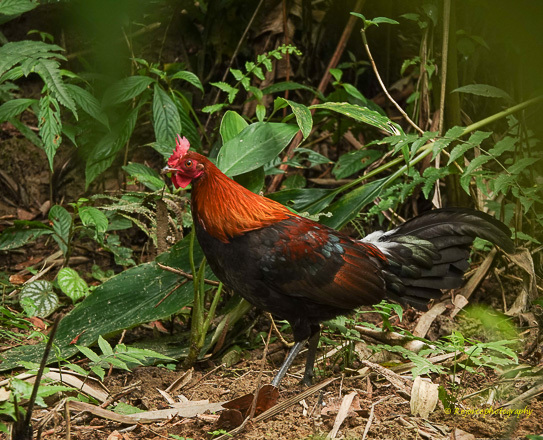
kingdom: Animalia
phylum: Chordata
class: Aves
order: Galliformes
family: Phasianidae
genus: Gallus
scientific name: Gallus gallus
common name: Red junglefowl
